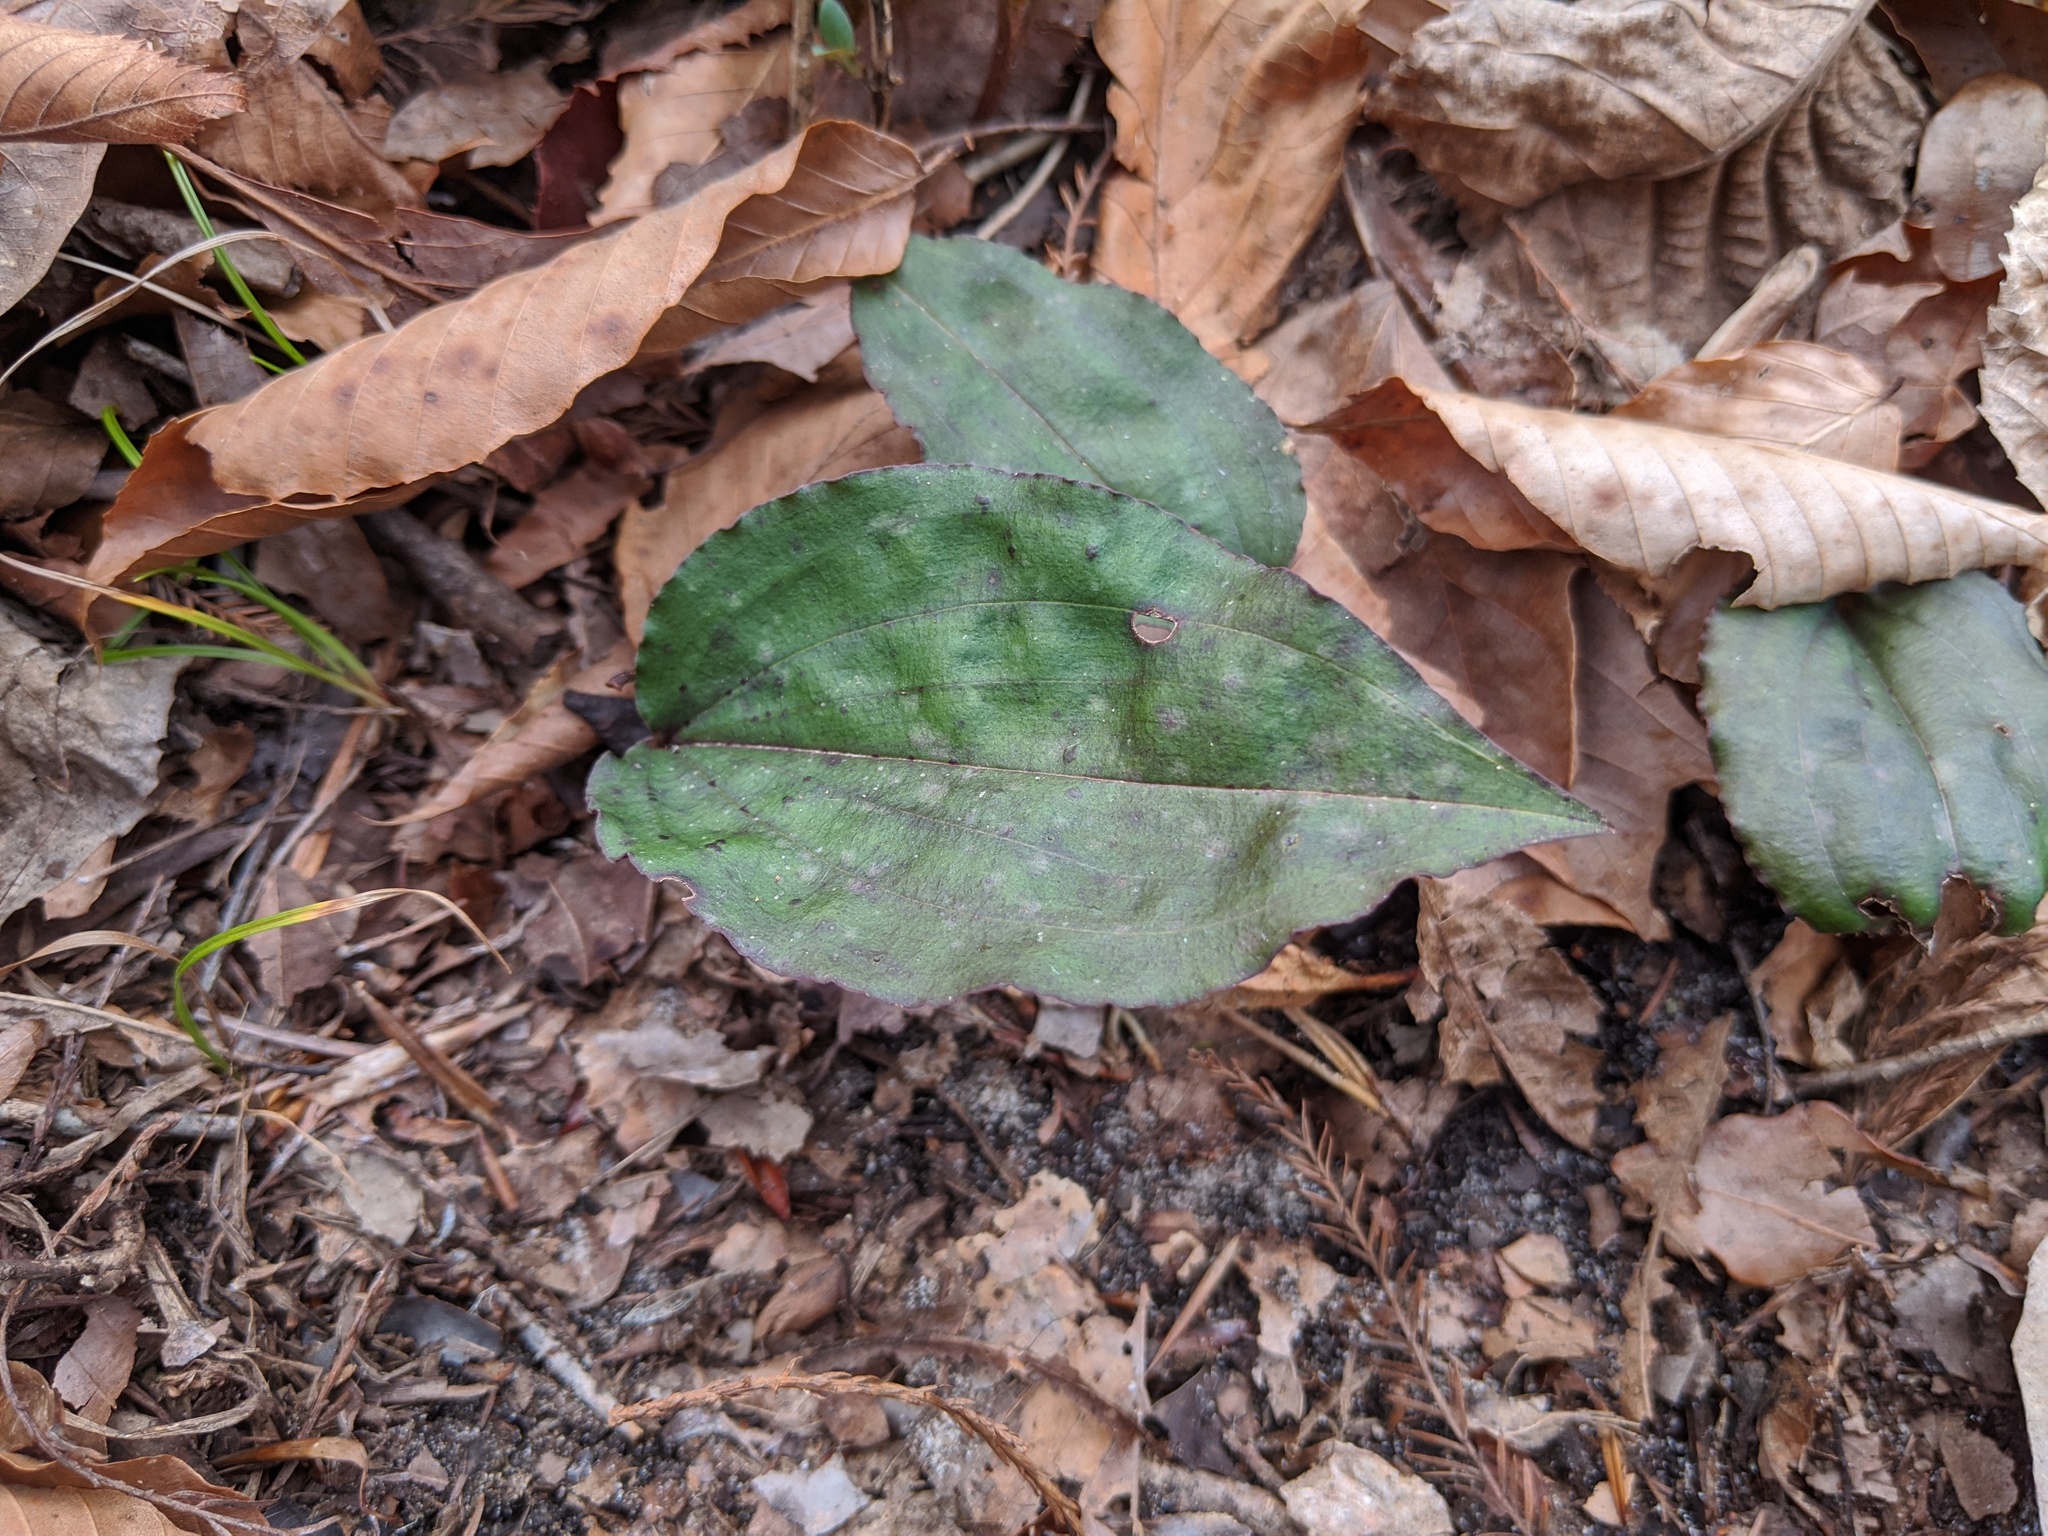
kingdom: Plantae
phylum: Tracheophyta
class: Liliopsida
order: Asparagales
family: Orchidaceae
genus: Tipularia
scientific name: Tipularia discolor
